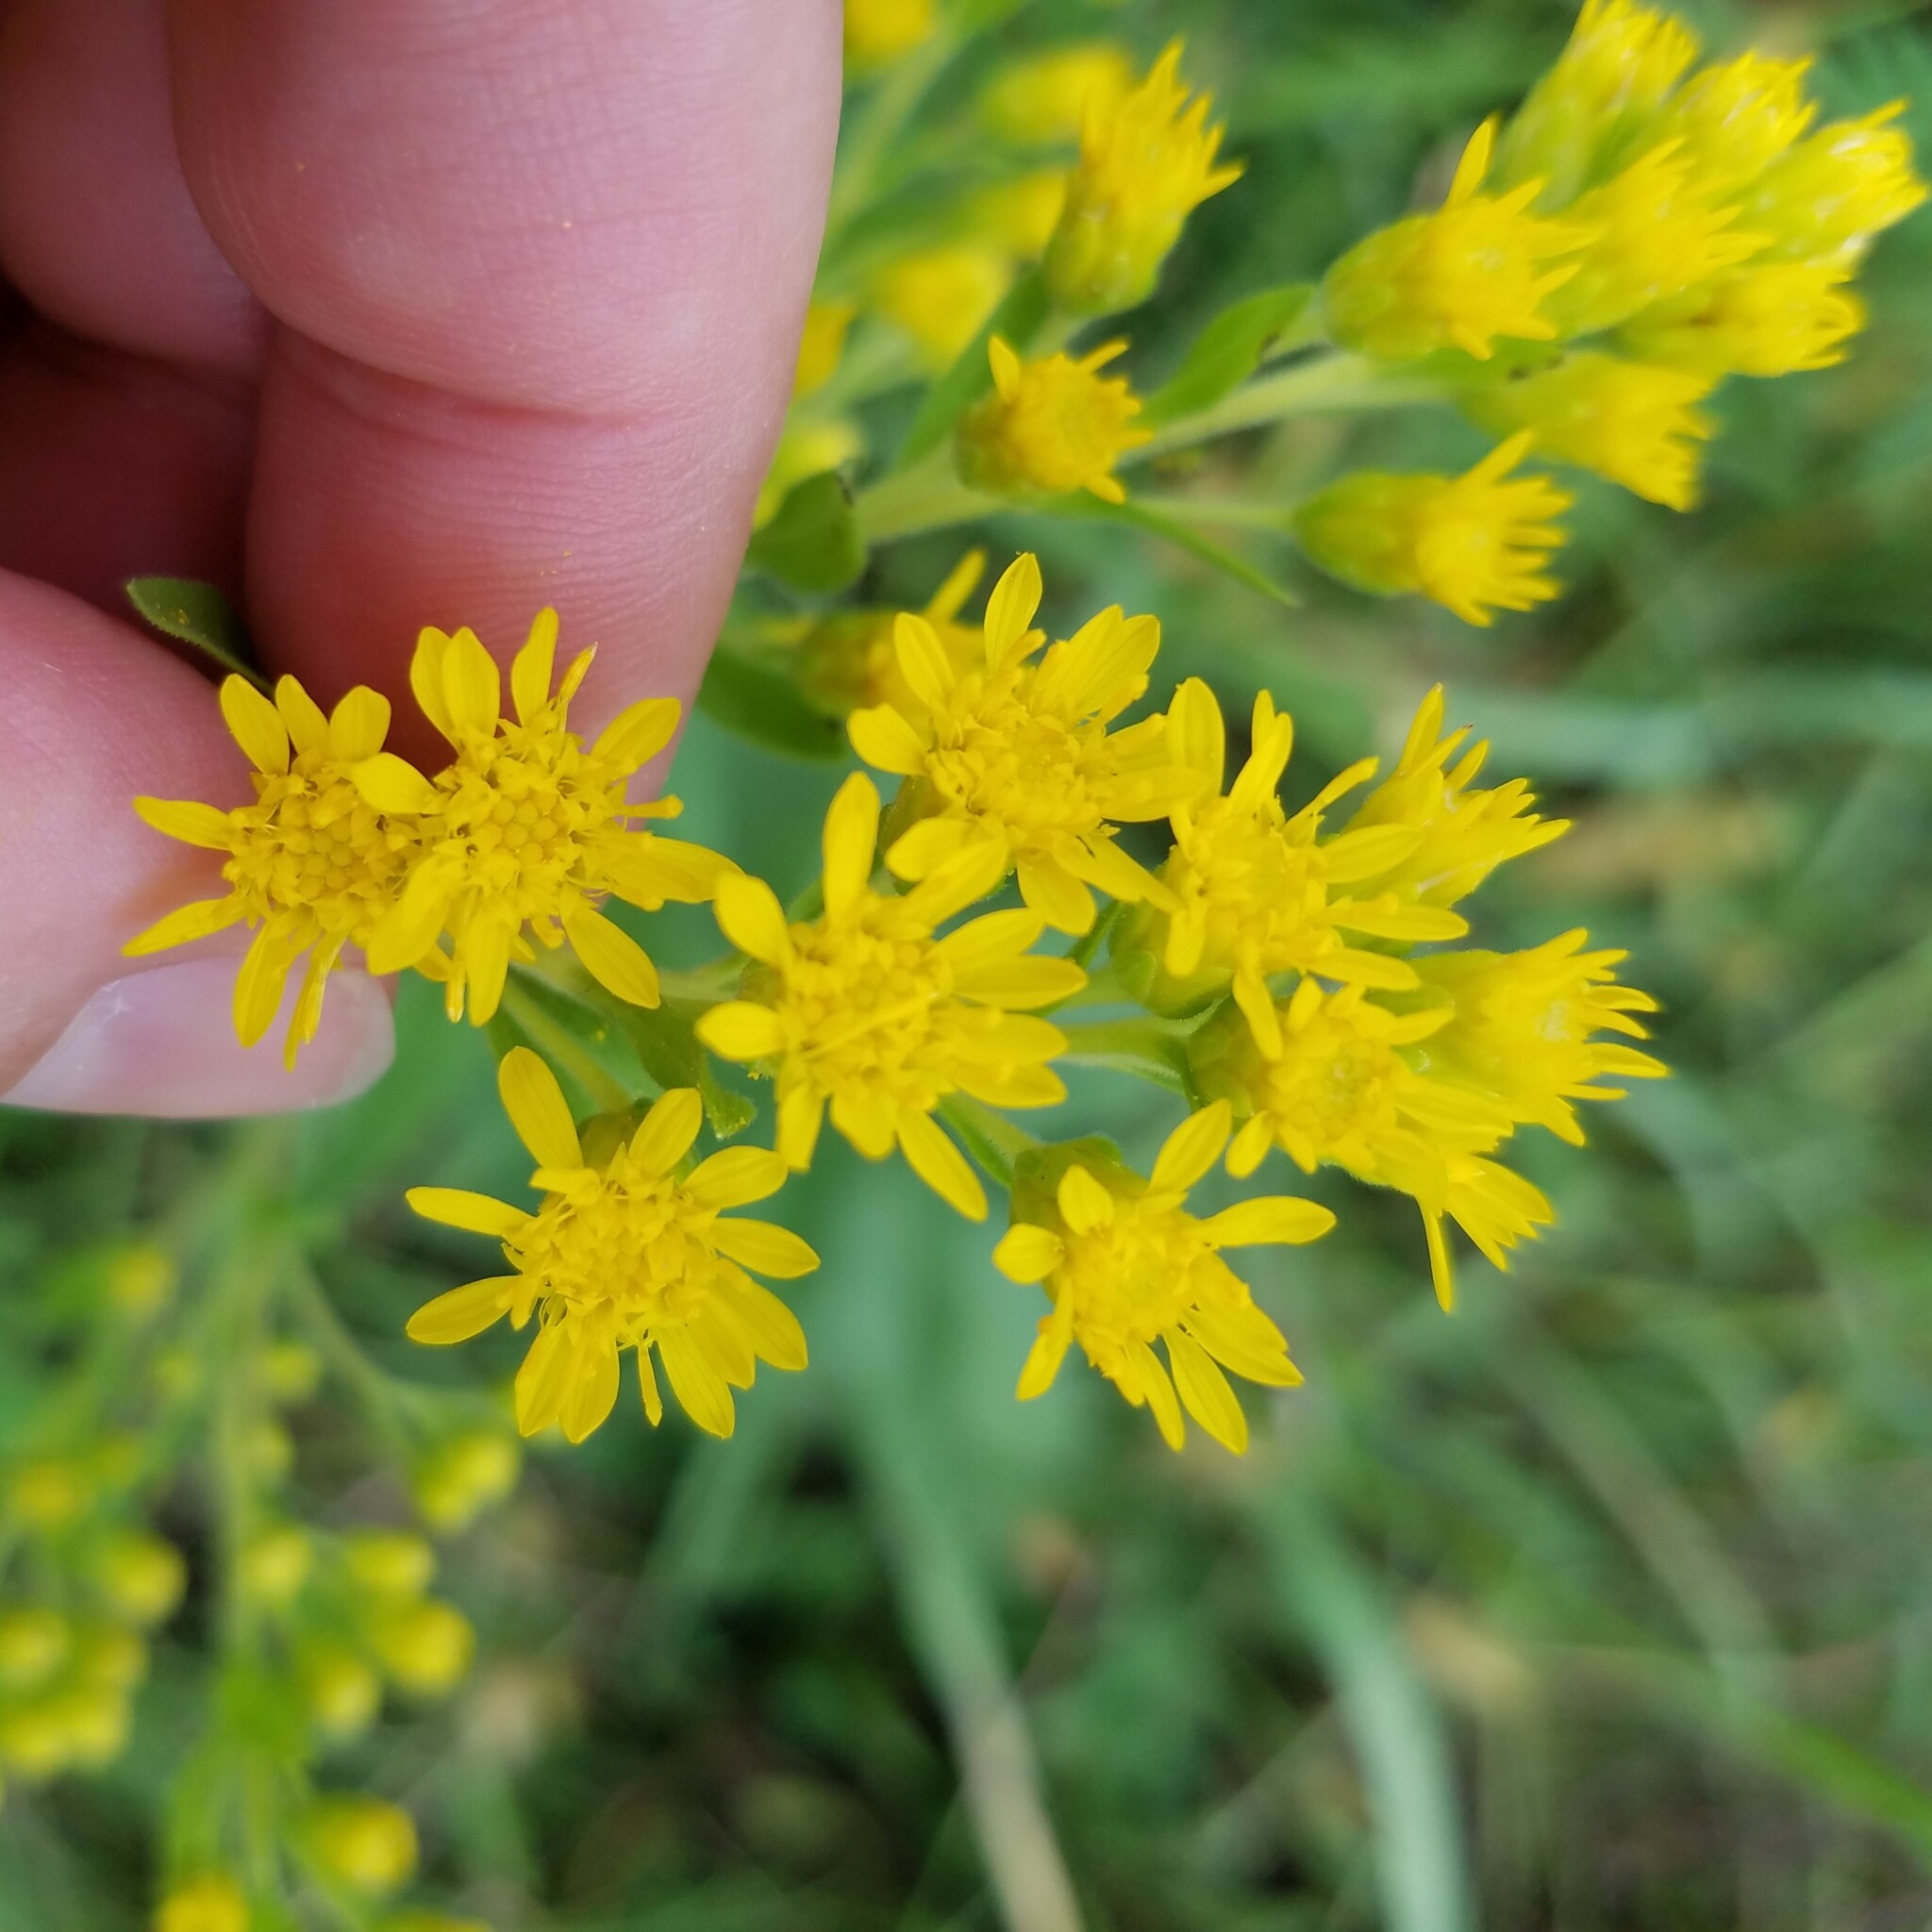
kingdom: Plantae
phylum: Tracheophyta
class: Magnoliopsida
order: Asterales
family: Asteraceae
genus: Solidago
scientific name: Solidago rigida
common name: Rigid goldenrod
